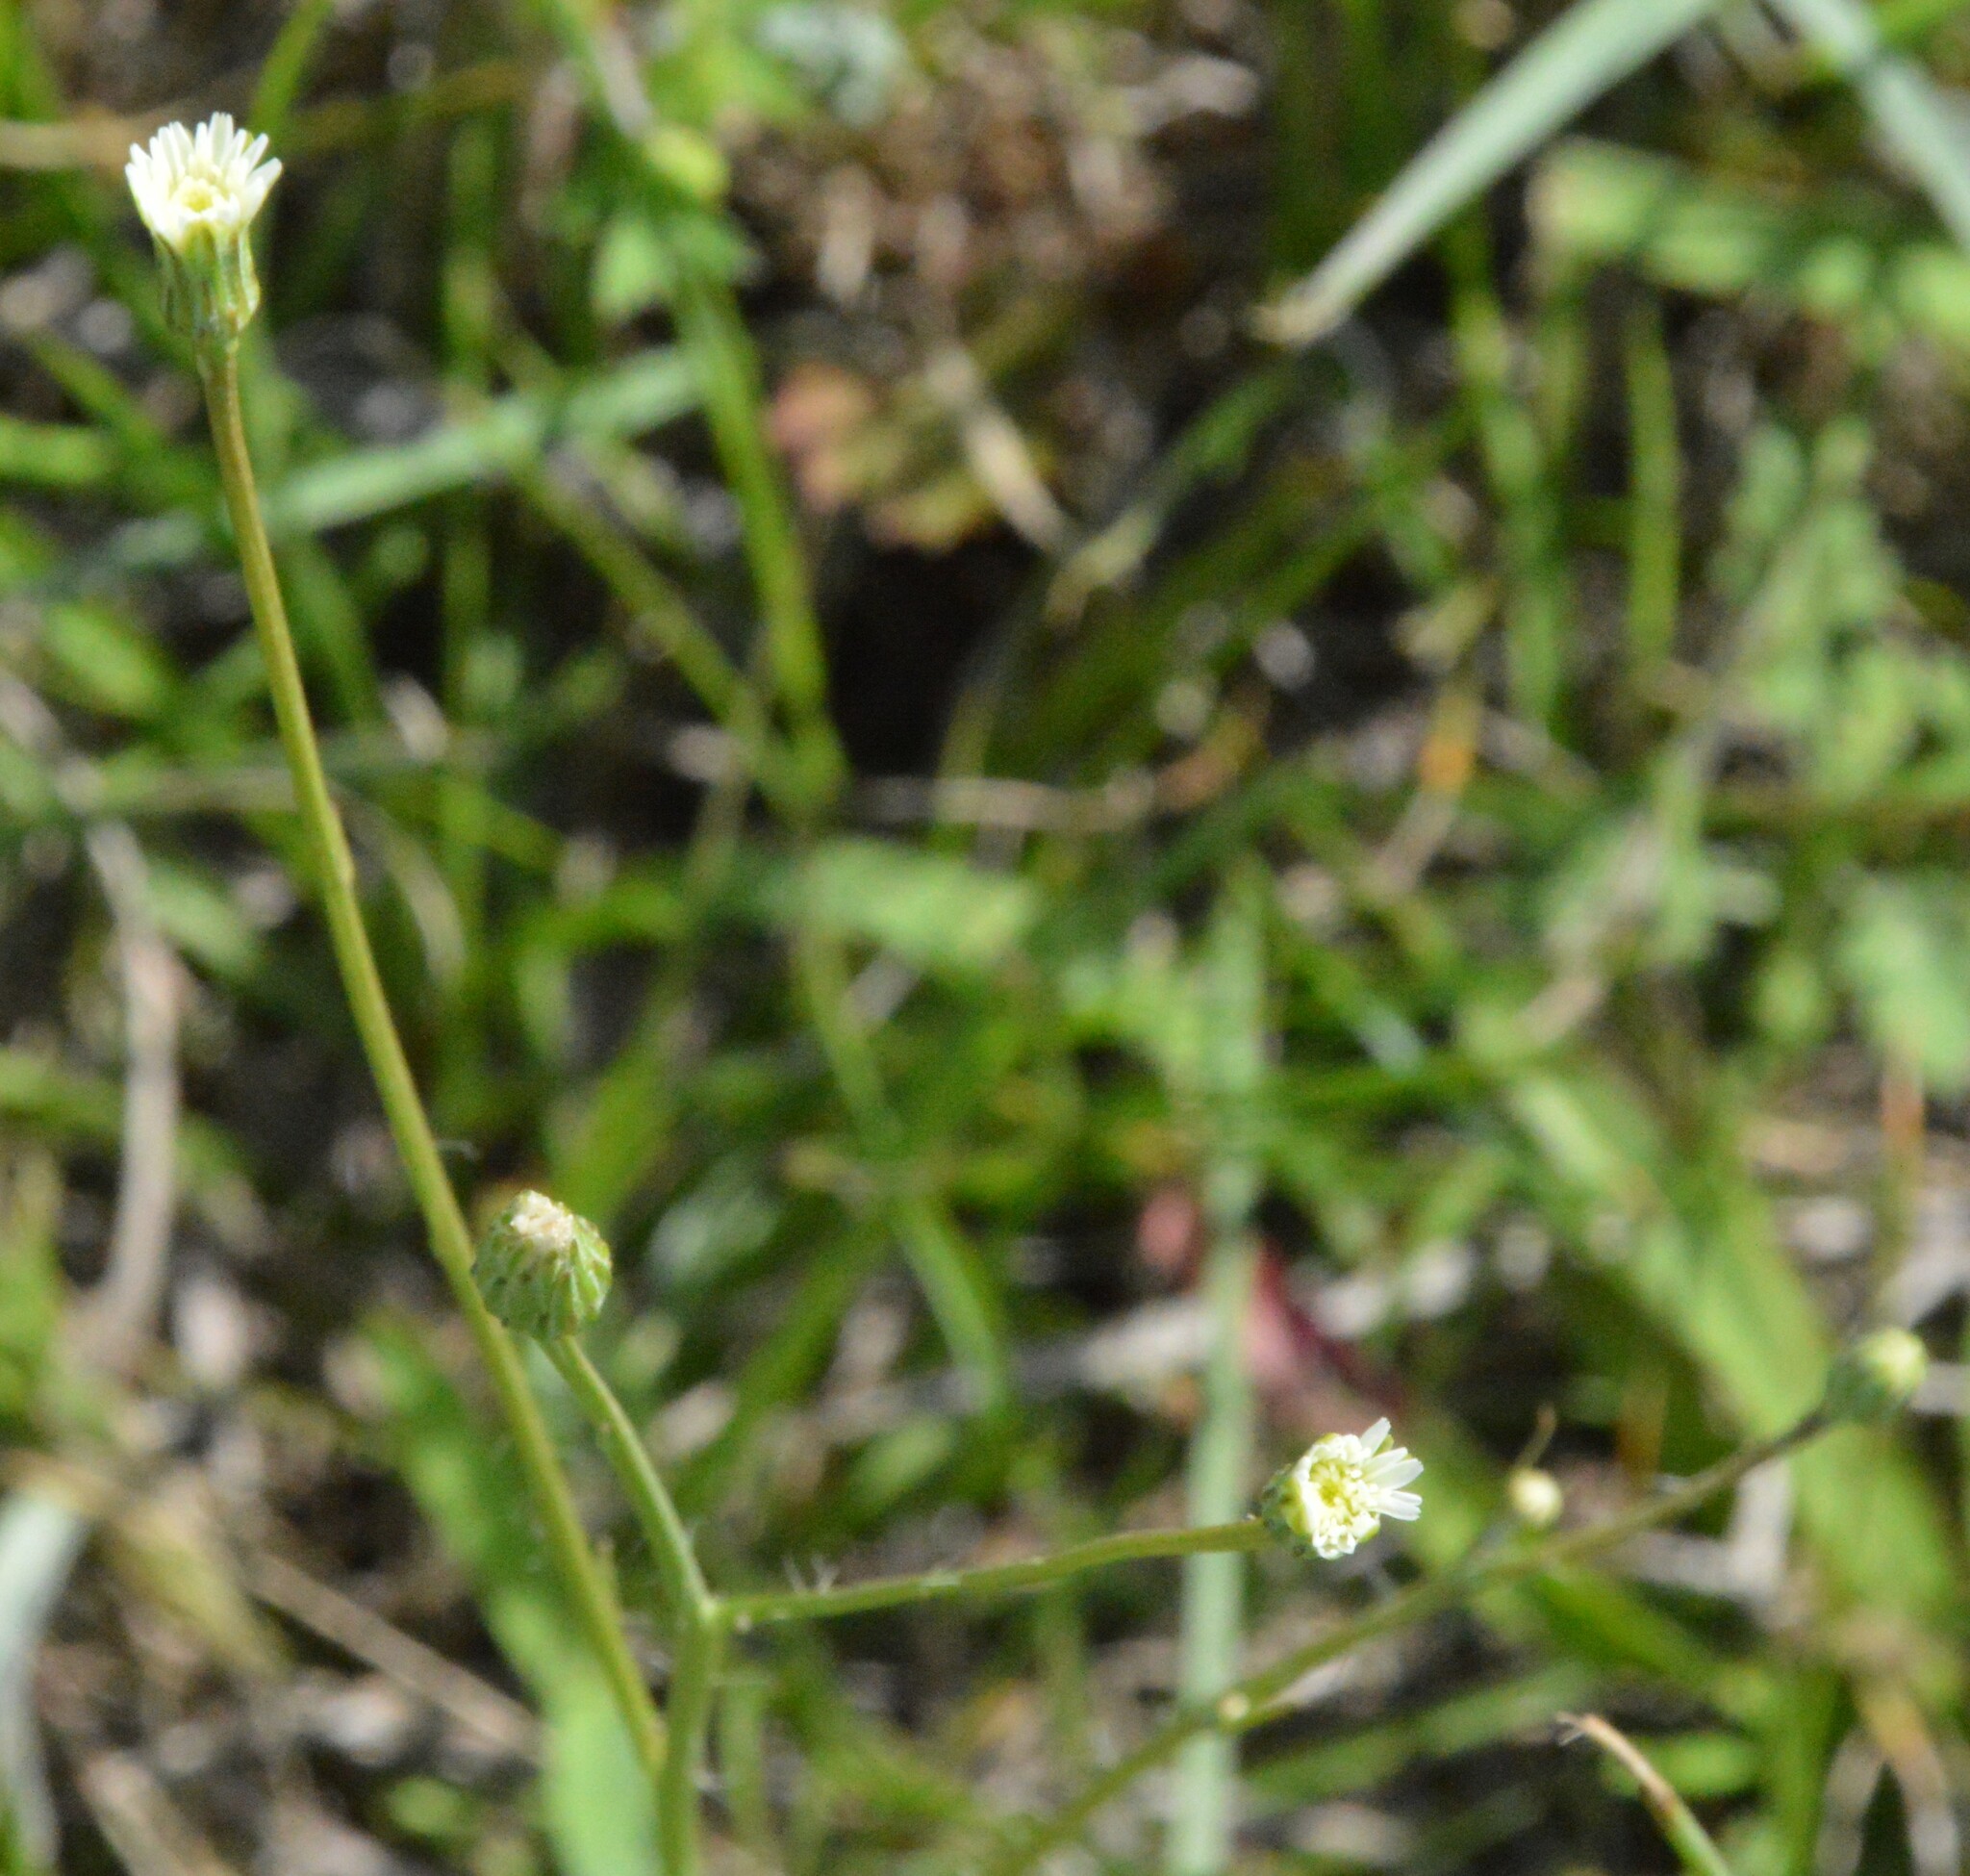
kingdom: Plantae
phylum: Tracheophyta
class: Magnoliopsida
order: Asterales
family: Asteraceae
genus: Hypochaeris
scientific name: Hypochaeris albiflora
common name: White flatweed
